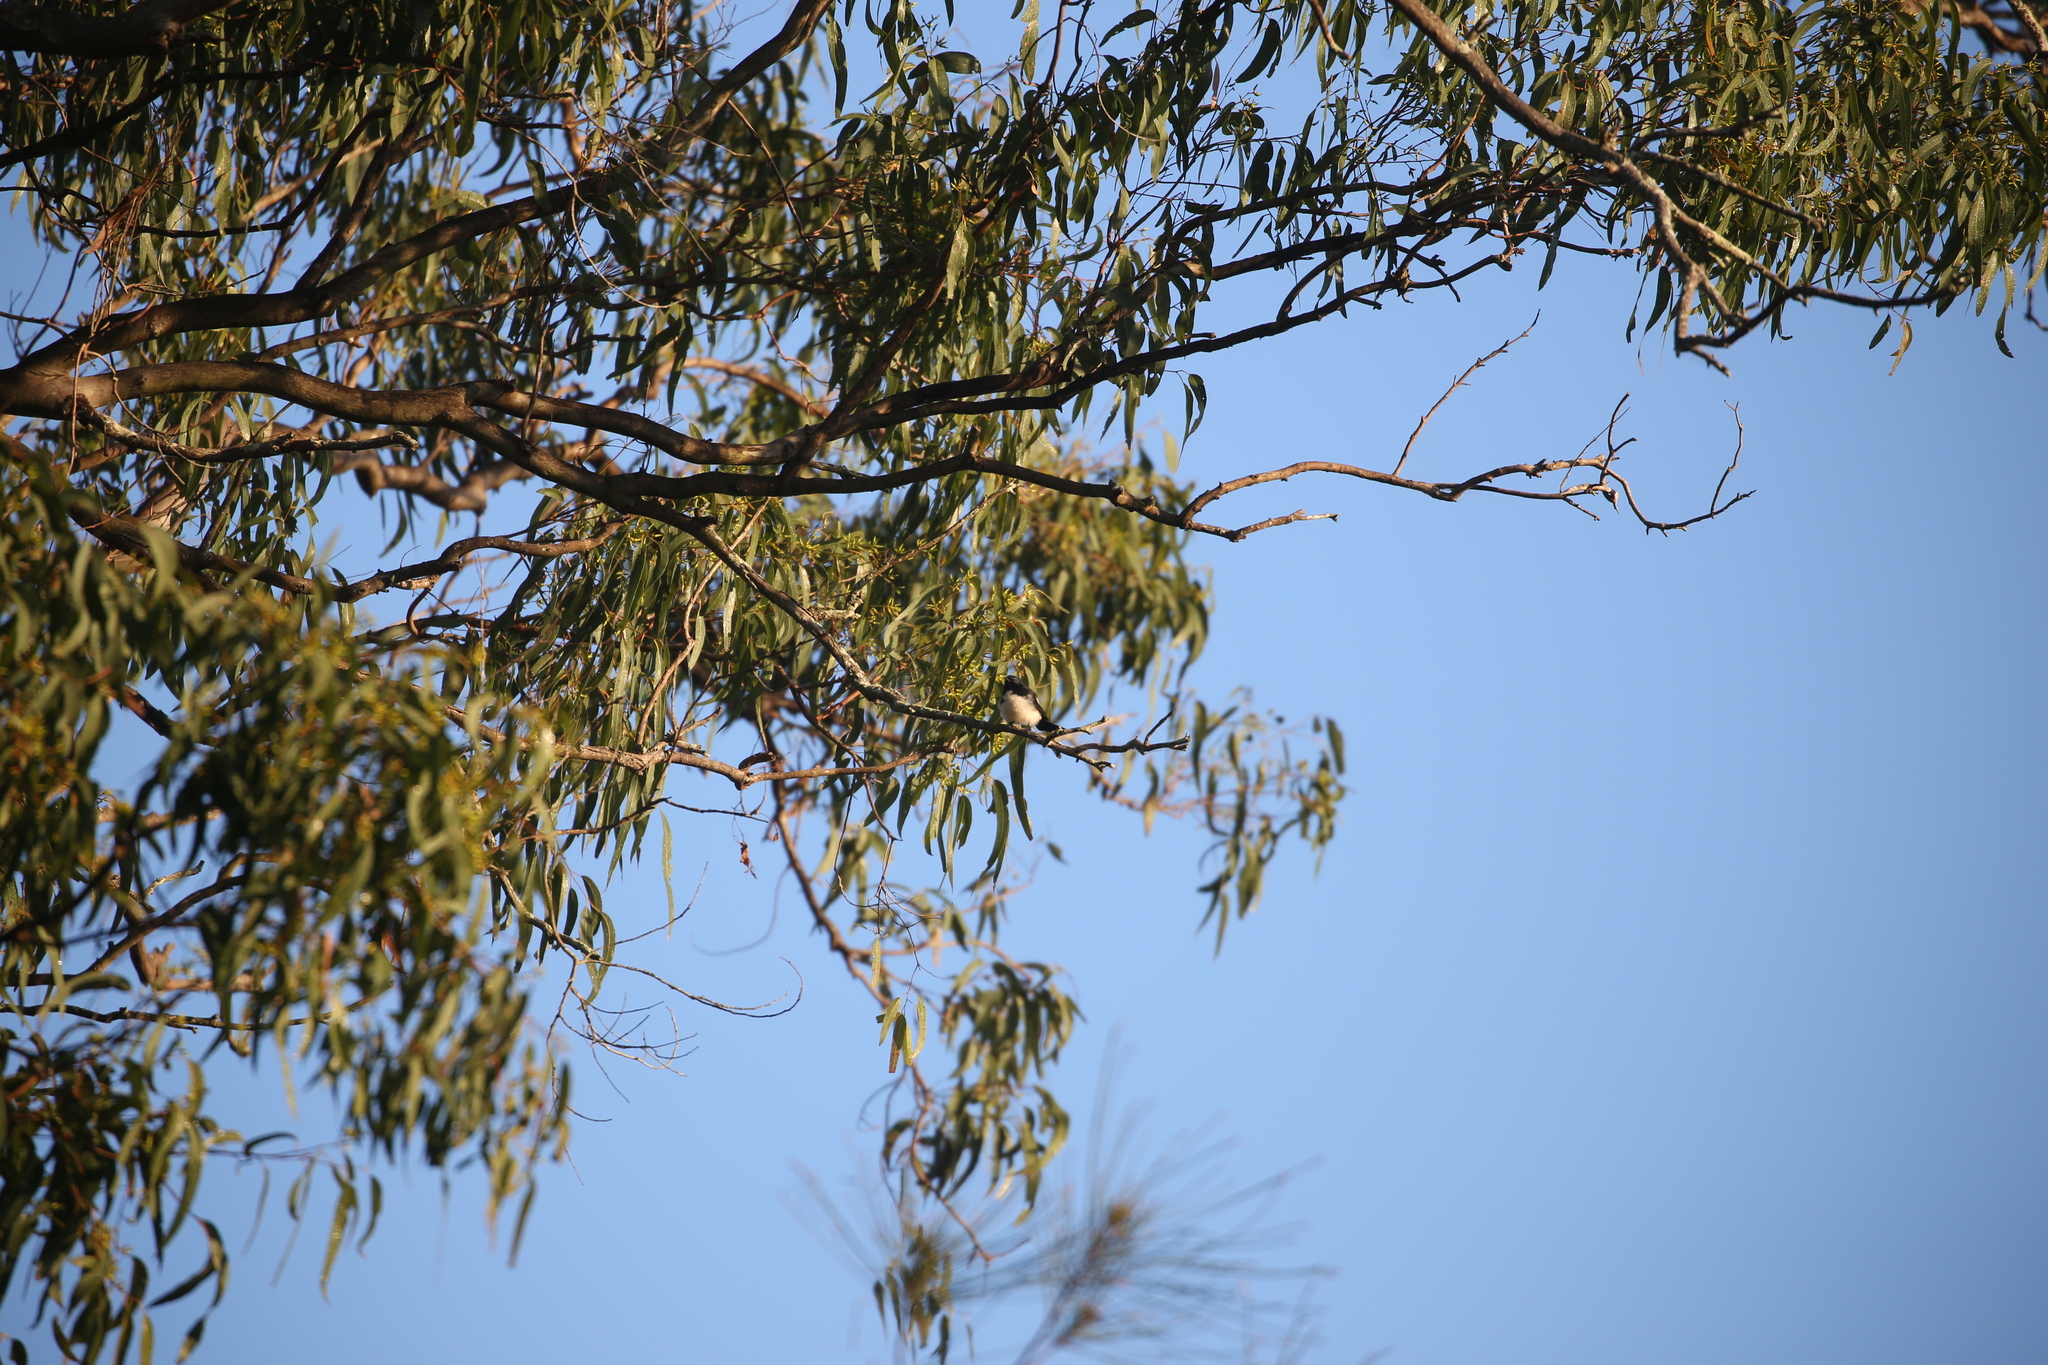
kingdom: Animalia
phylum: Chordata
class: Aves
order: Passeriformes
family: Rhipiduridae
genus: Rhipidura
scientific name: Rhipidura leucophrys
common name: Willie wagtail
